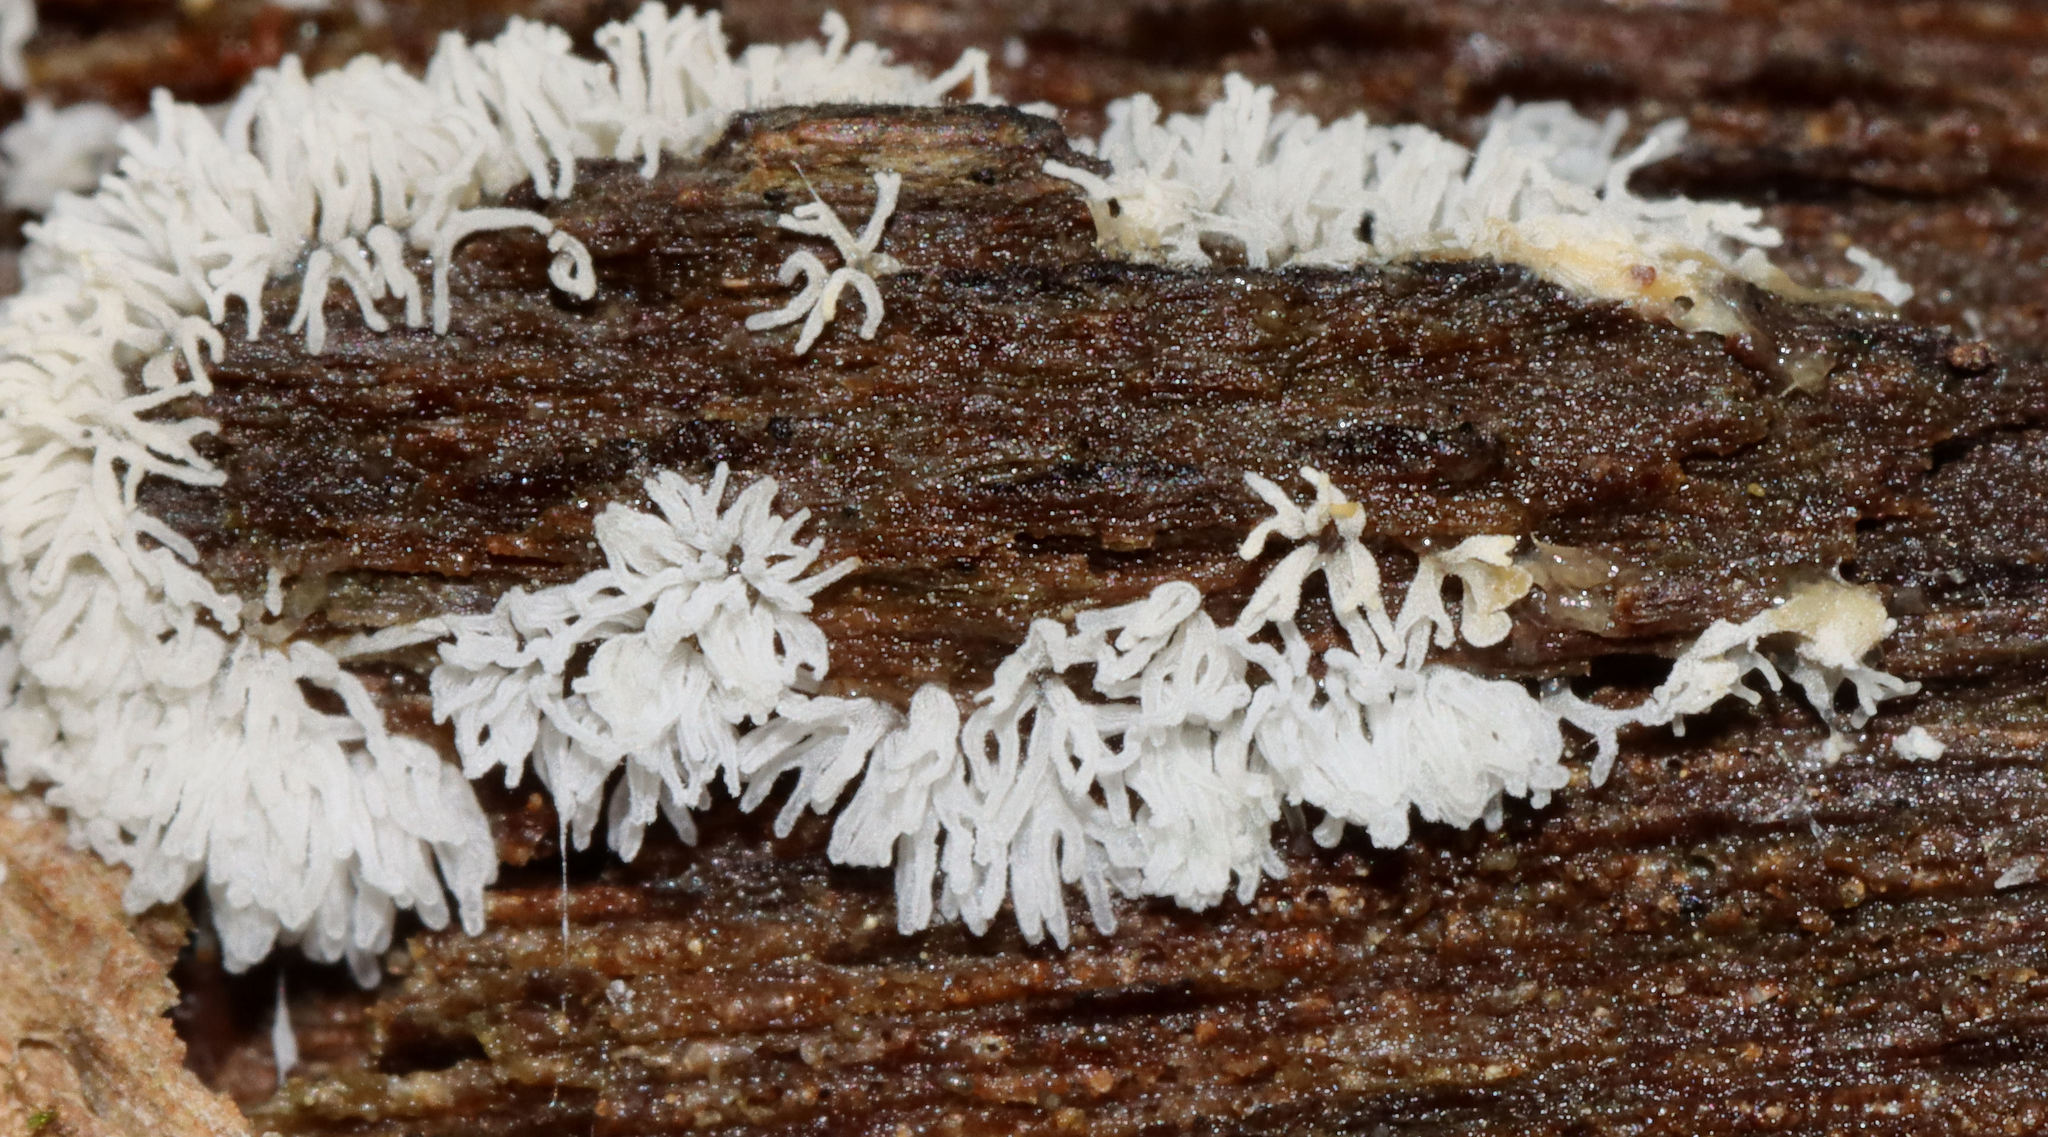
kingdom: Protozoa
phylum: Mycetozoa
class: Protosteliomycetes
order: Ceratiomyxales
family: Ceratiomyxaceae
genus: Ceratiomyxa
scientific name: Ceratiomyxa fruticulosa
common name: Honeycomb coral slime mold
